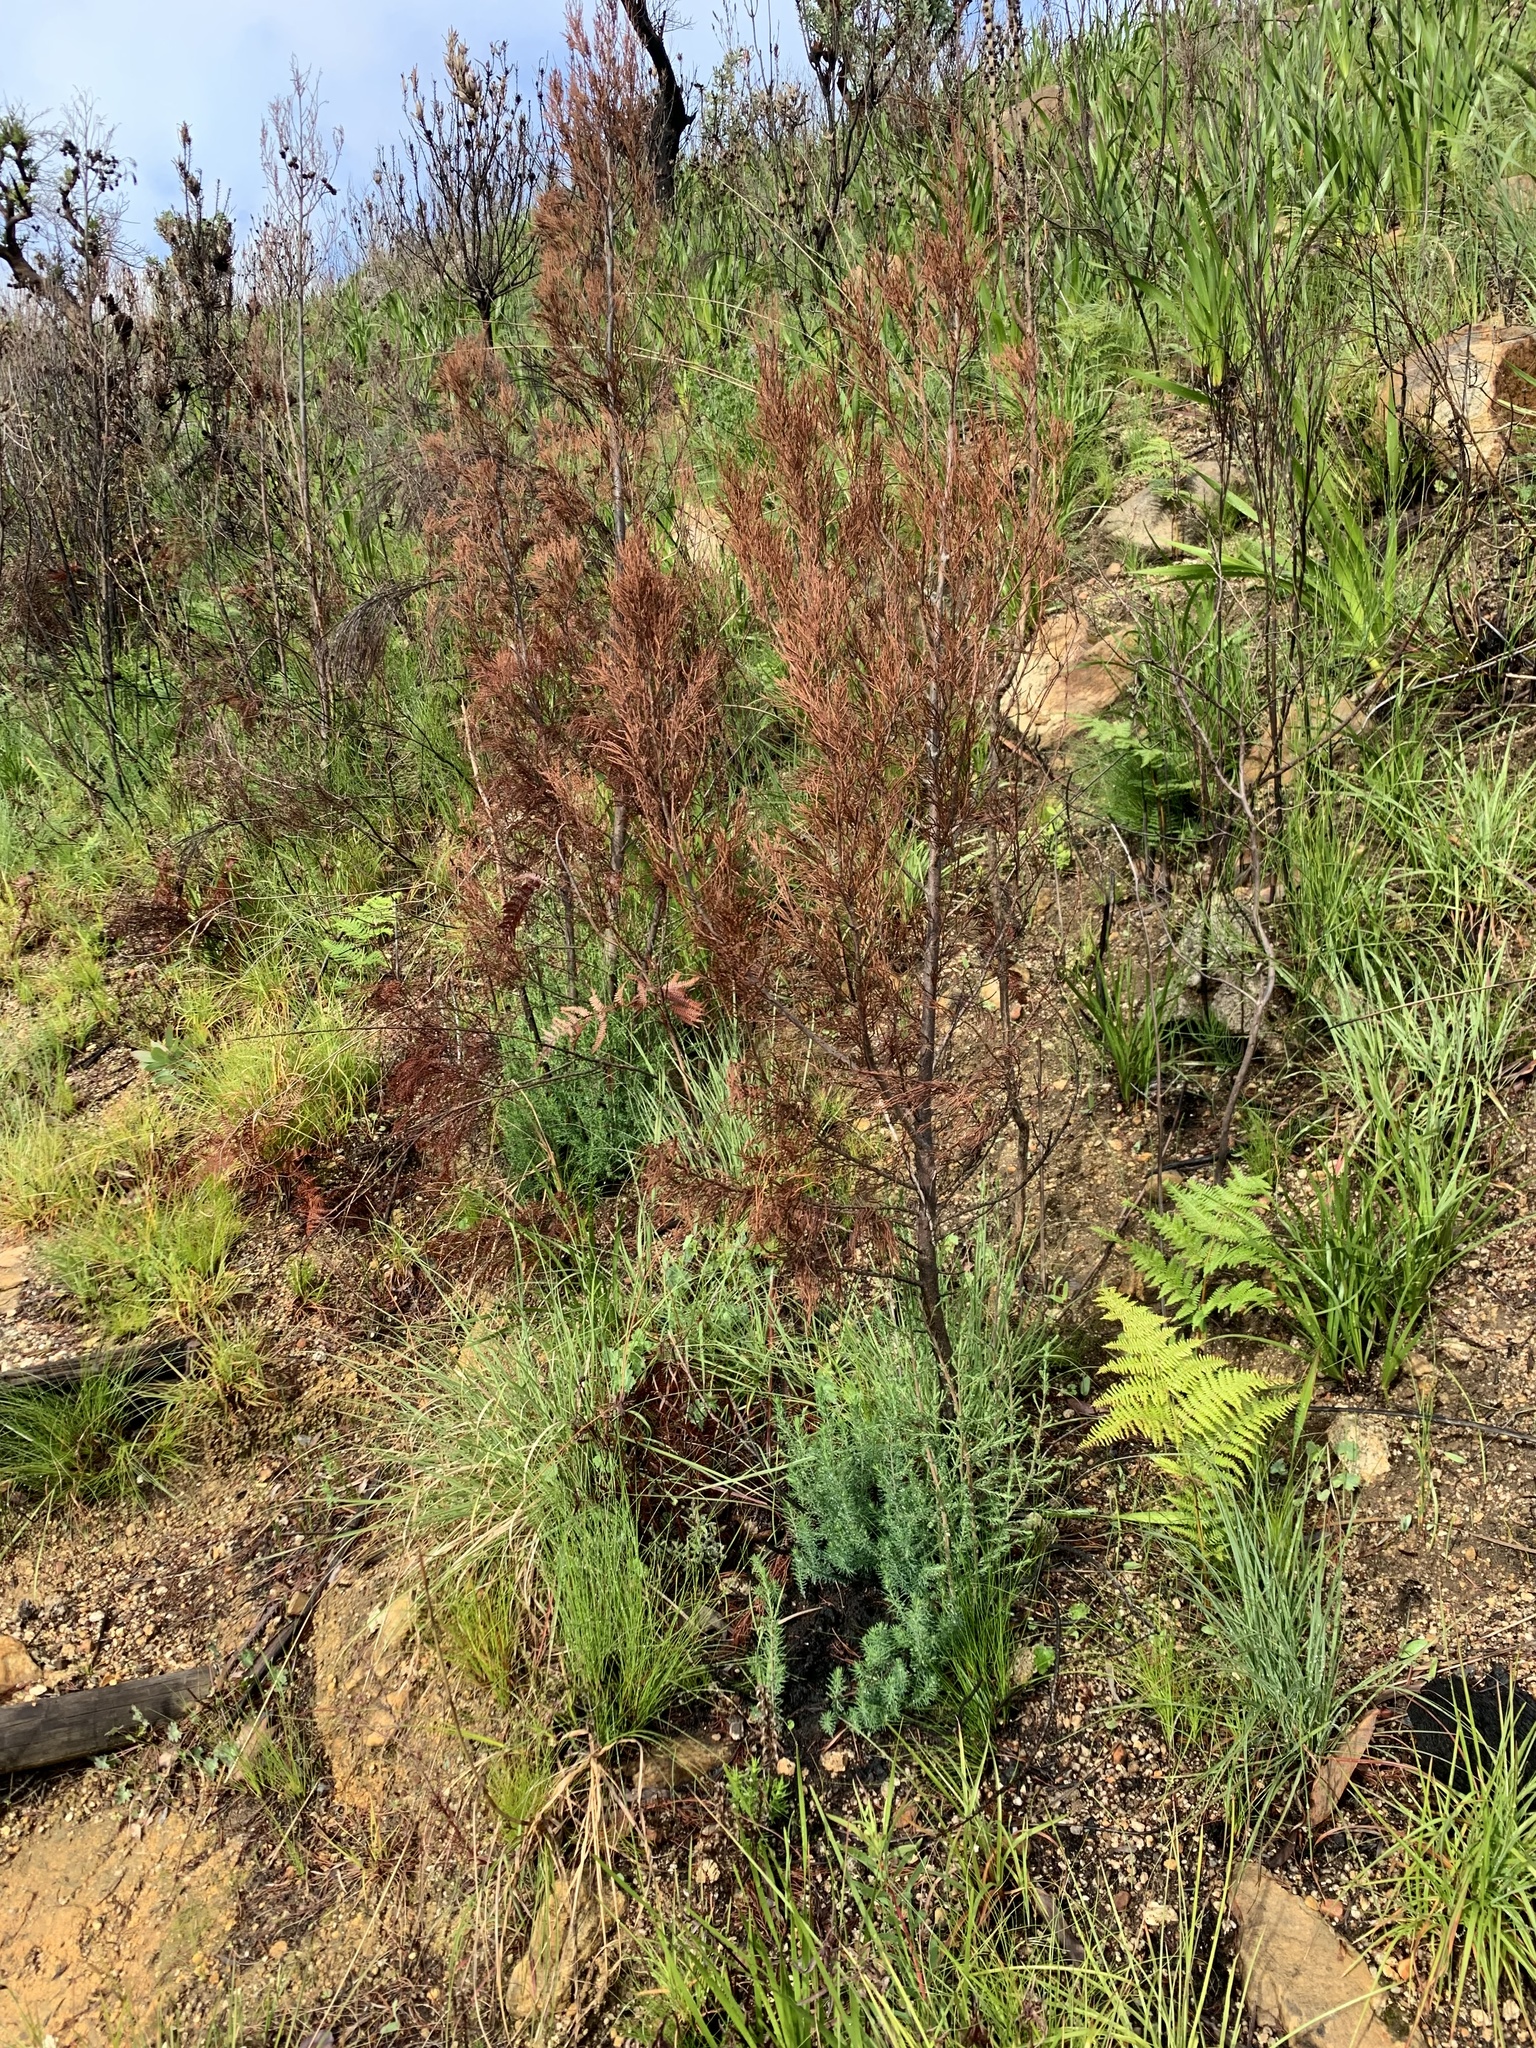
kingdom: Plantae
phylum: Tracheophyta
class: Pinopsida
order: Pinales
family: Cupressaceae
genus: Widdringtonia
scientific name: Widdringtonia nodiflora
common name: Cape cypress
